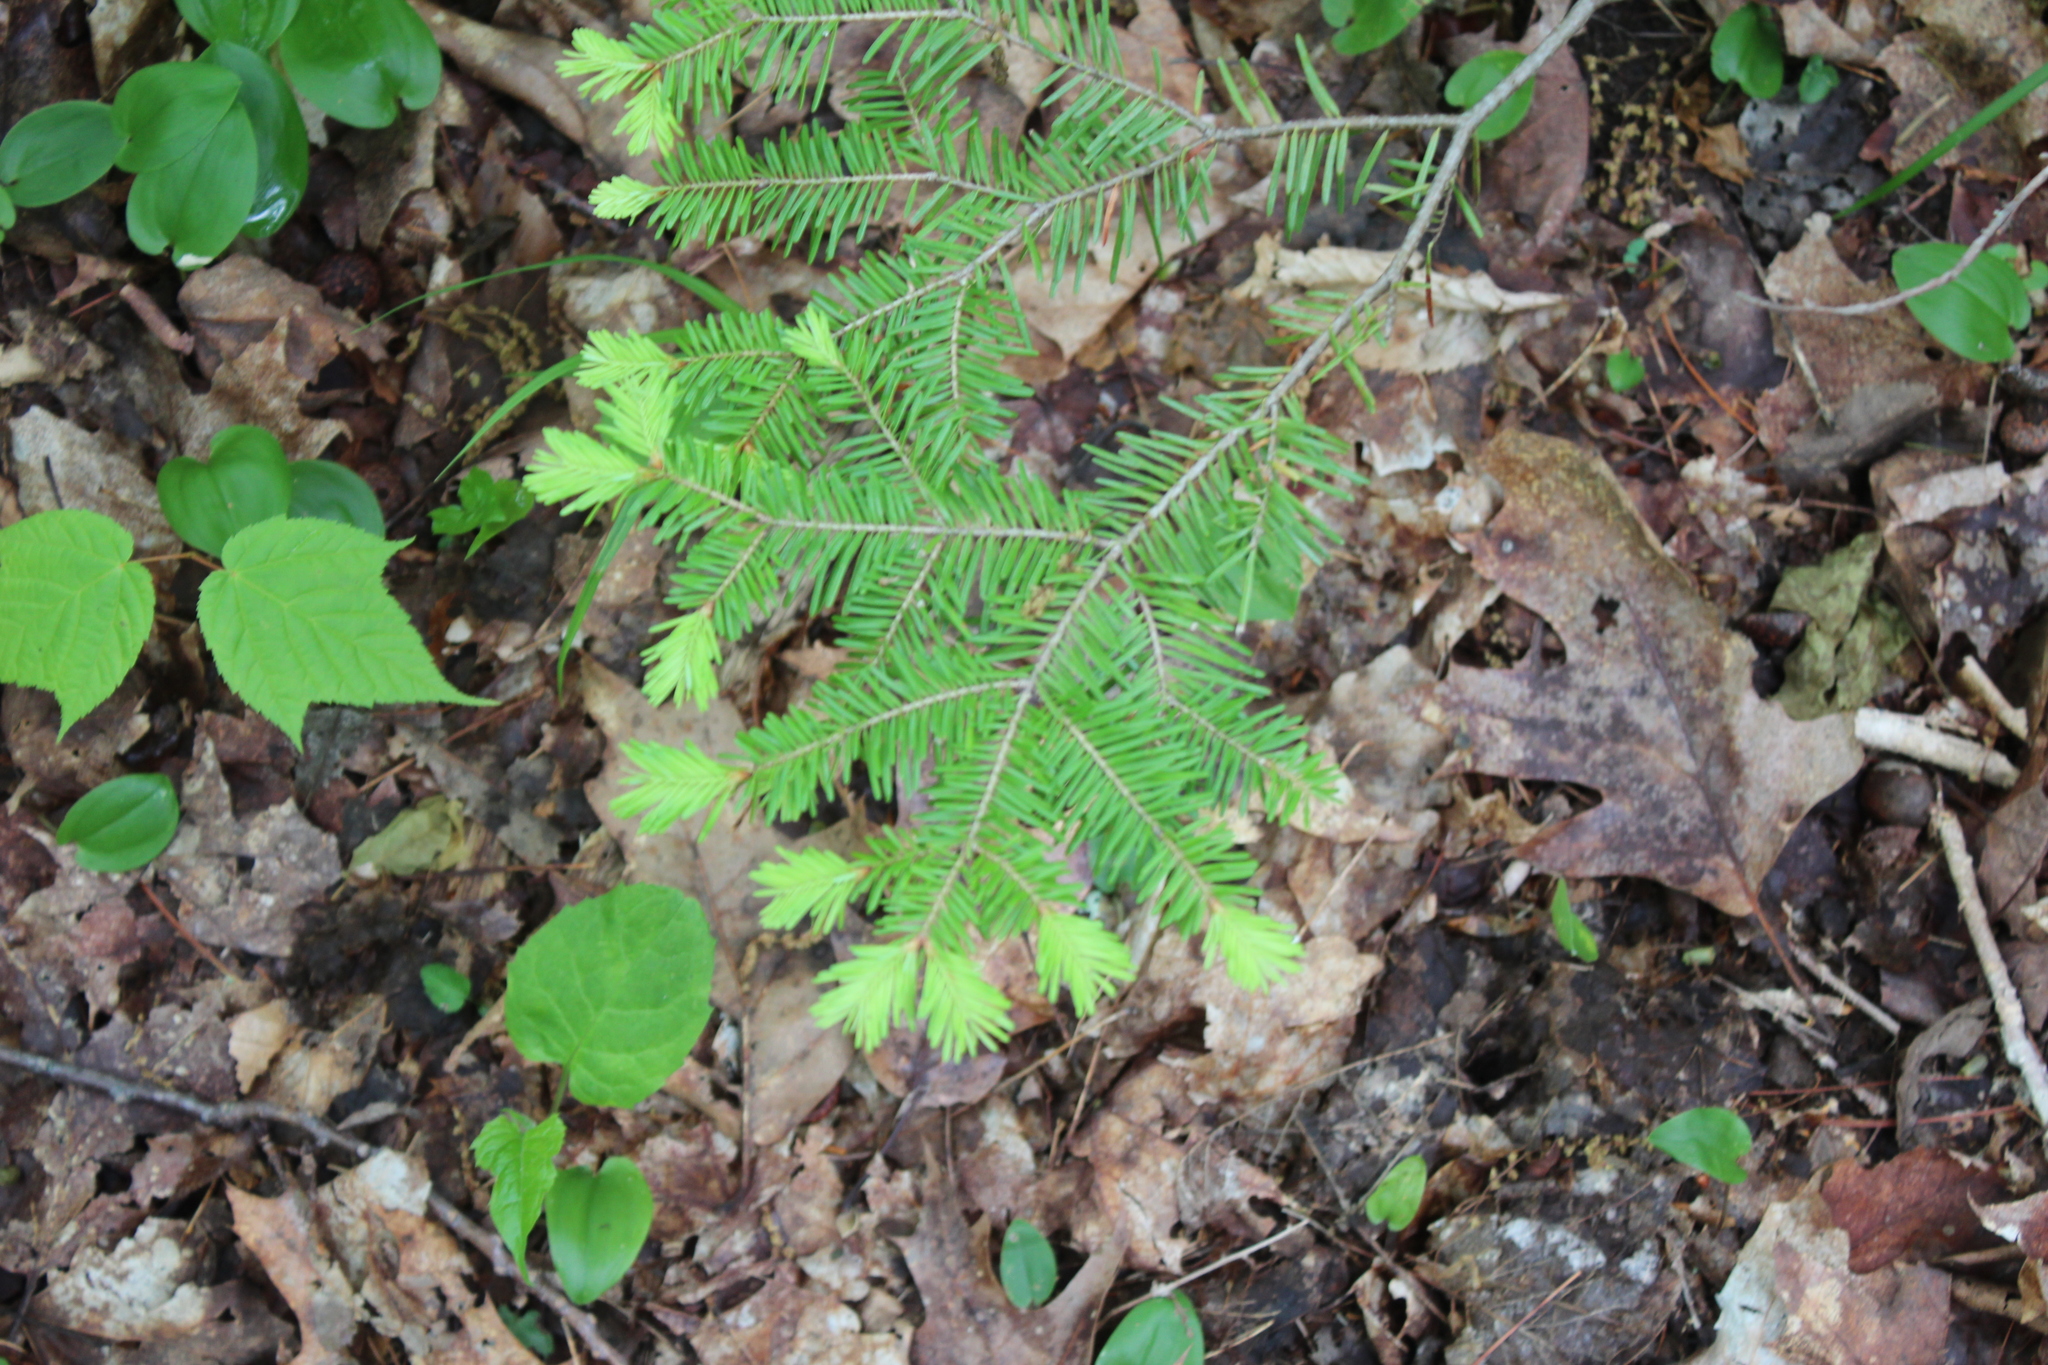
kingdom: Plantae
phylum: Tracheophyta
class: Pinopsida
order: Pinales
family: Pinaceae
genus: Abies
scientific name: Abies balsamea
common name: Balsam fir
